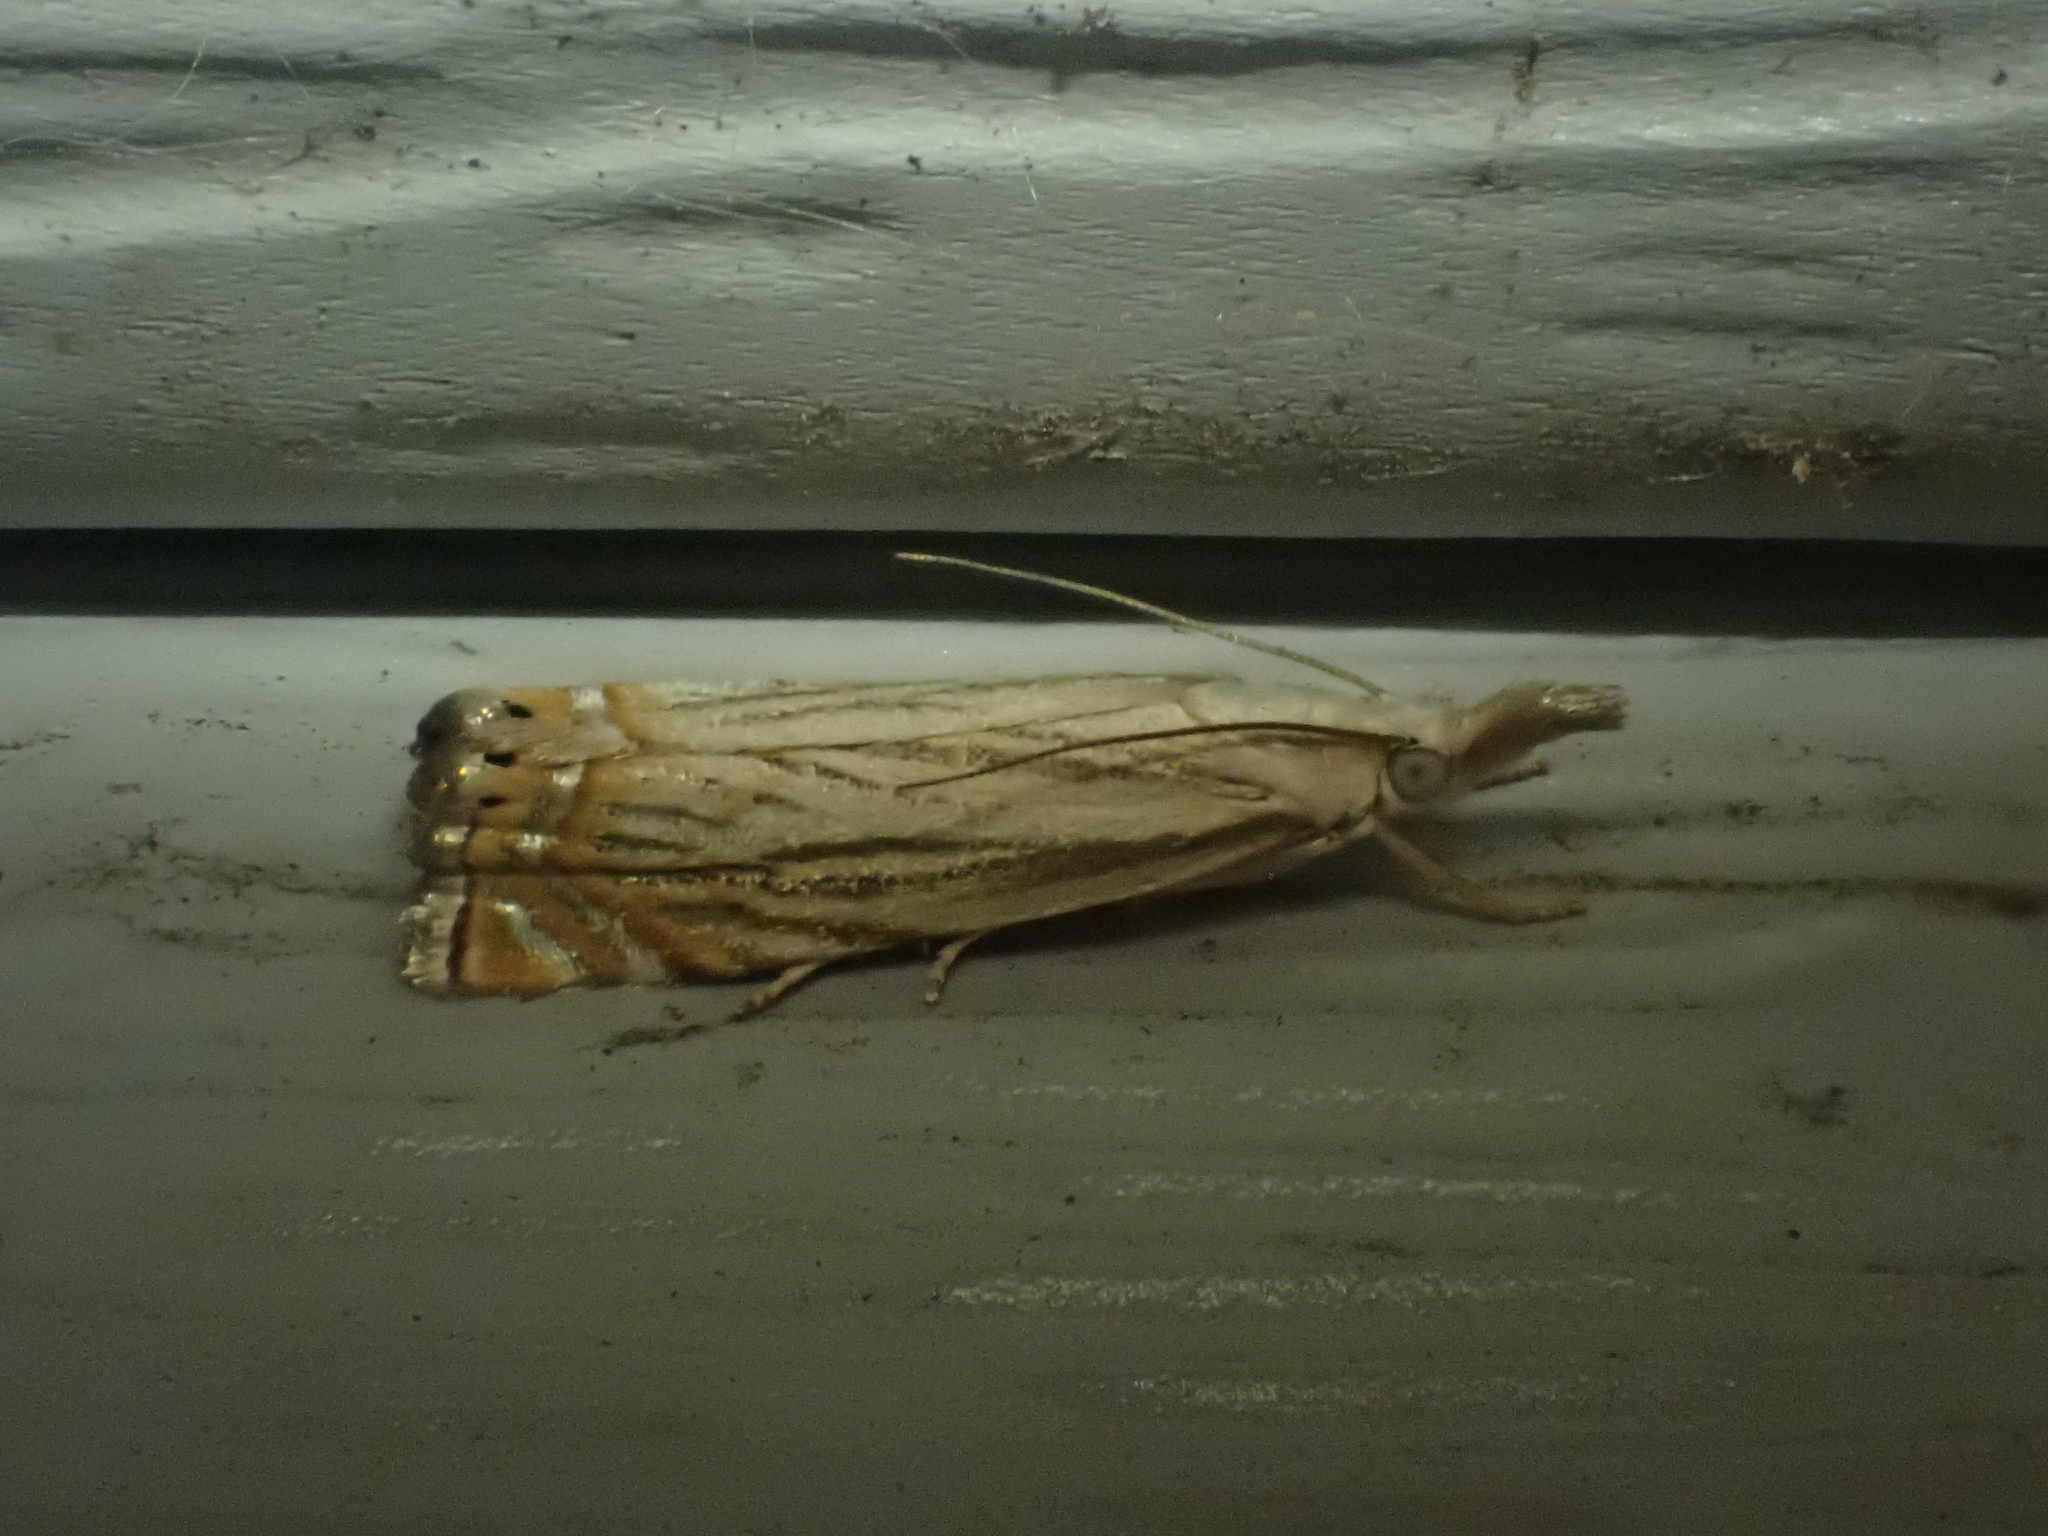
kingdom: Animalia
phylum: Arthropoda
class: Insecta
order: Lepidoptera
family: Crambidae
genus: Chrysoteuchia
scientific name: Chrysoteuchia topiarius
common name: Topiary grass-veneer
